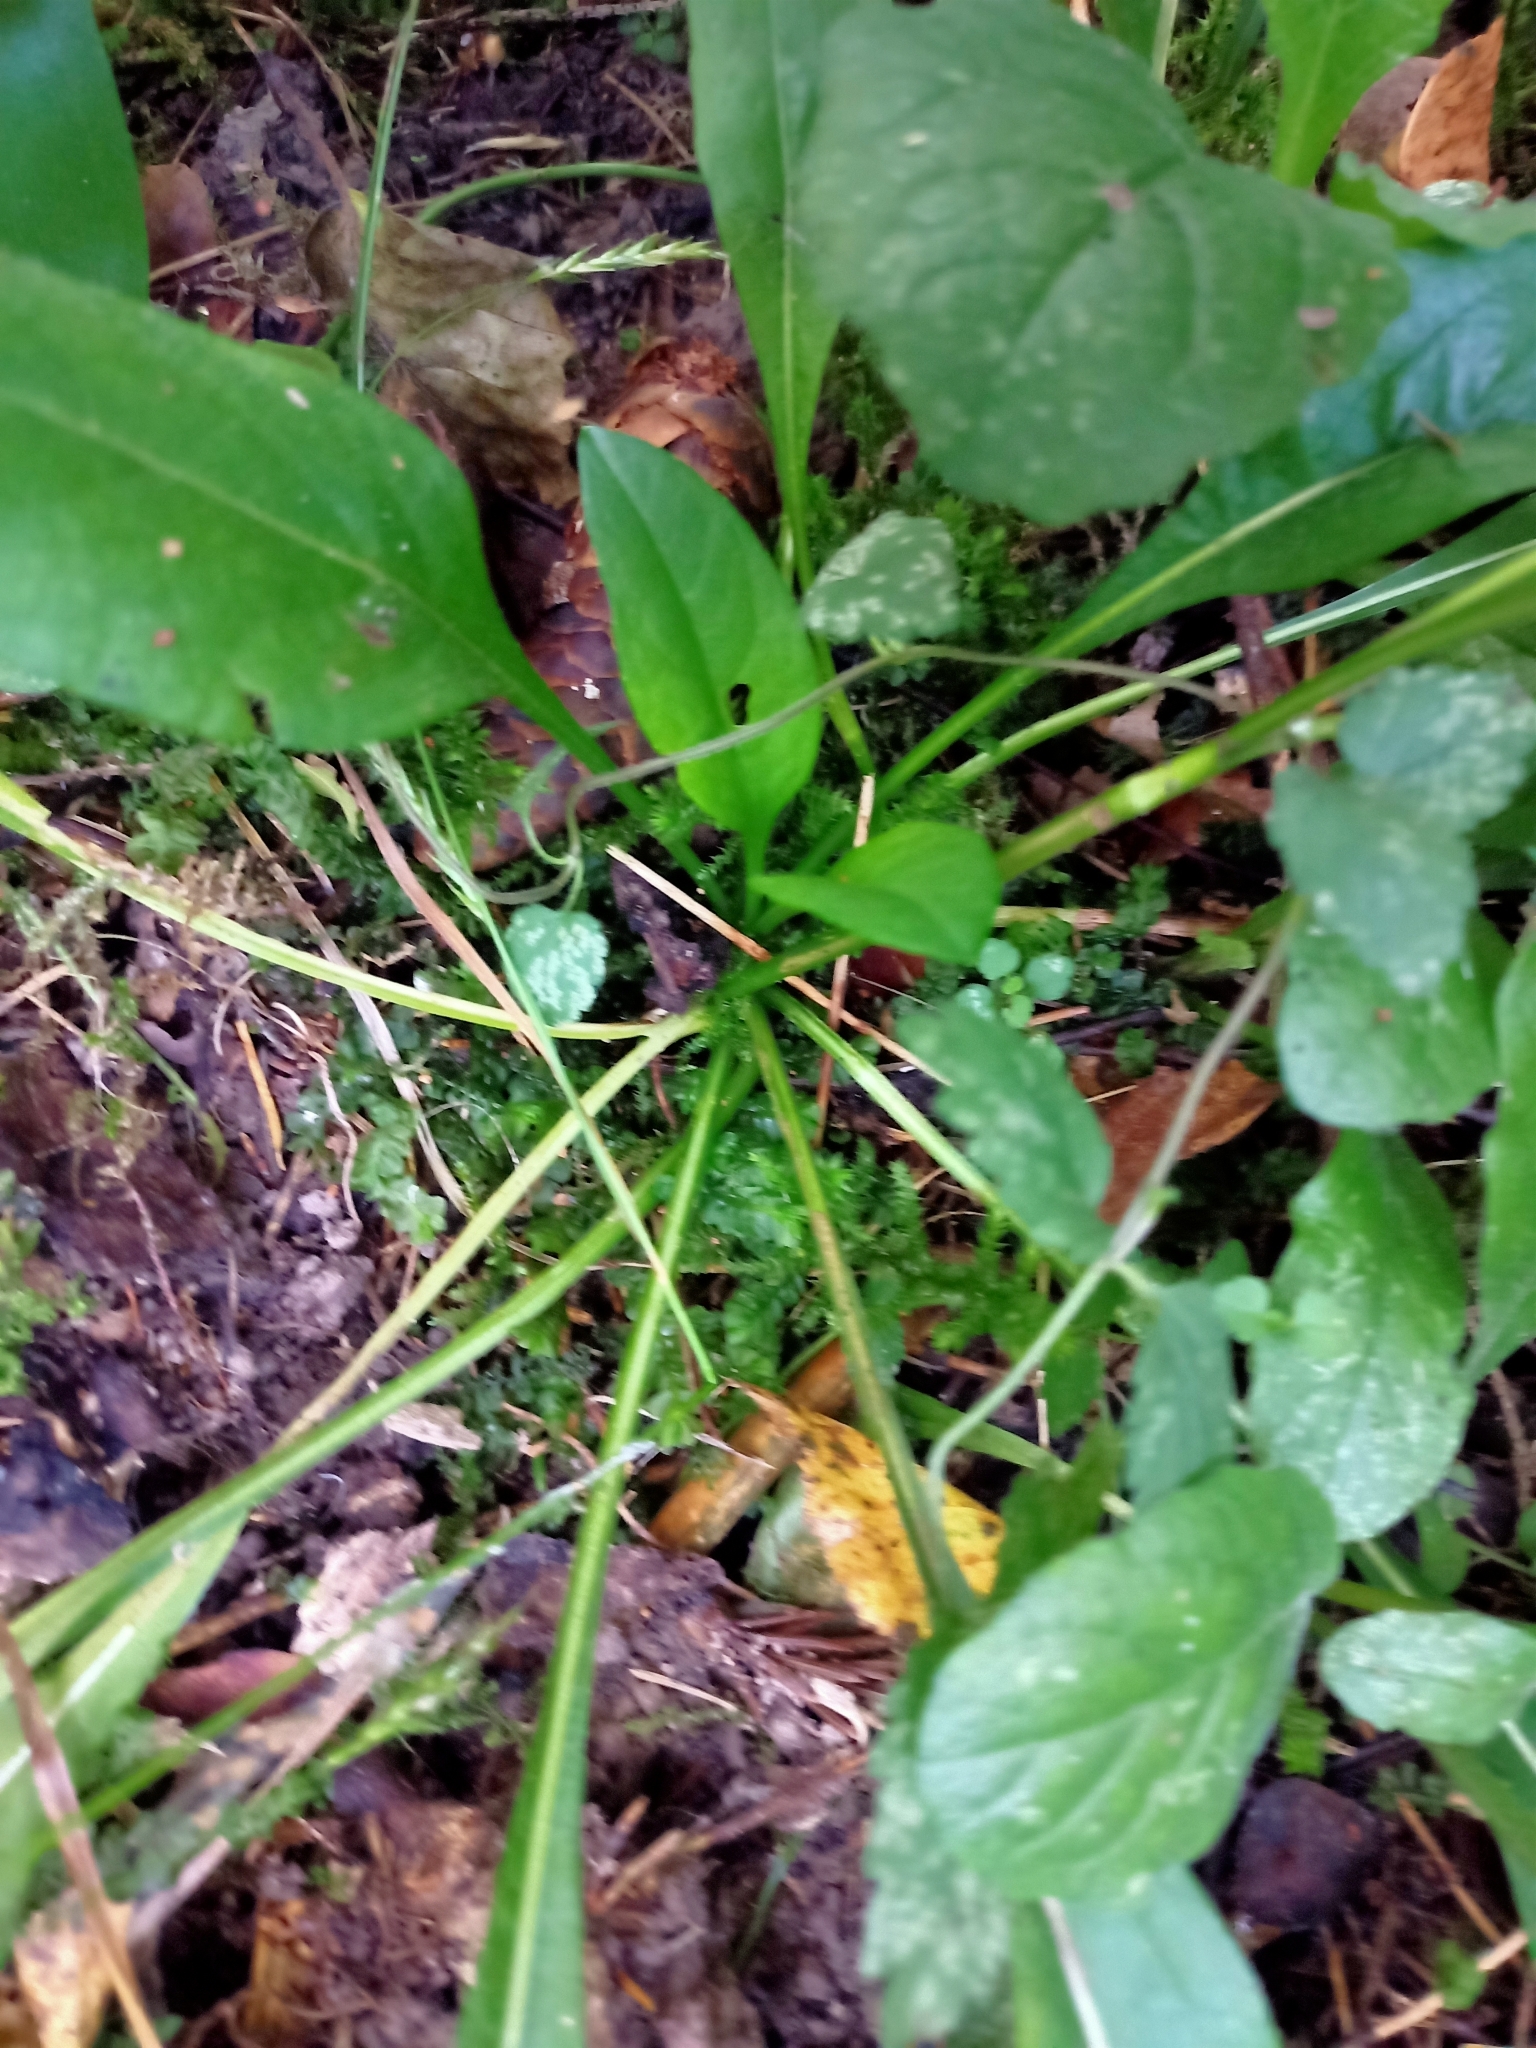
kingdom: Plantae
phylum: Tracheophyta
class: Magnoliopsida
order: Dipsacales
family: Caprifoliaceae
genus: Succisa
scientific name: Succisa pratensis
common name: Devil's-bit
